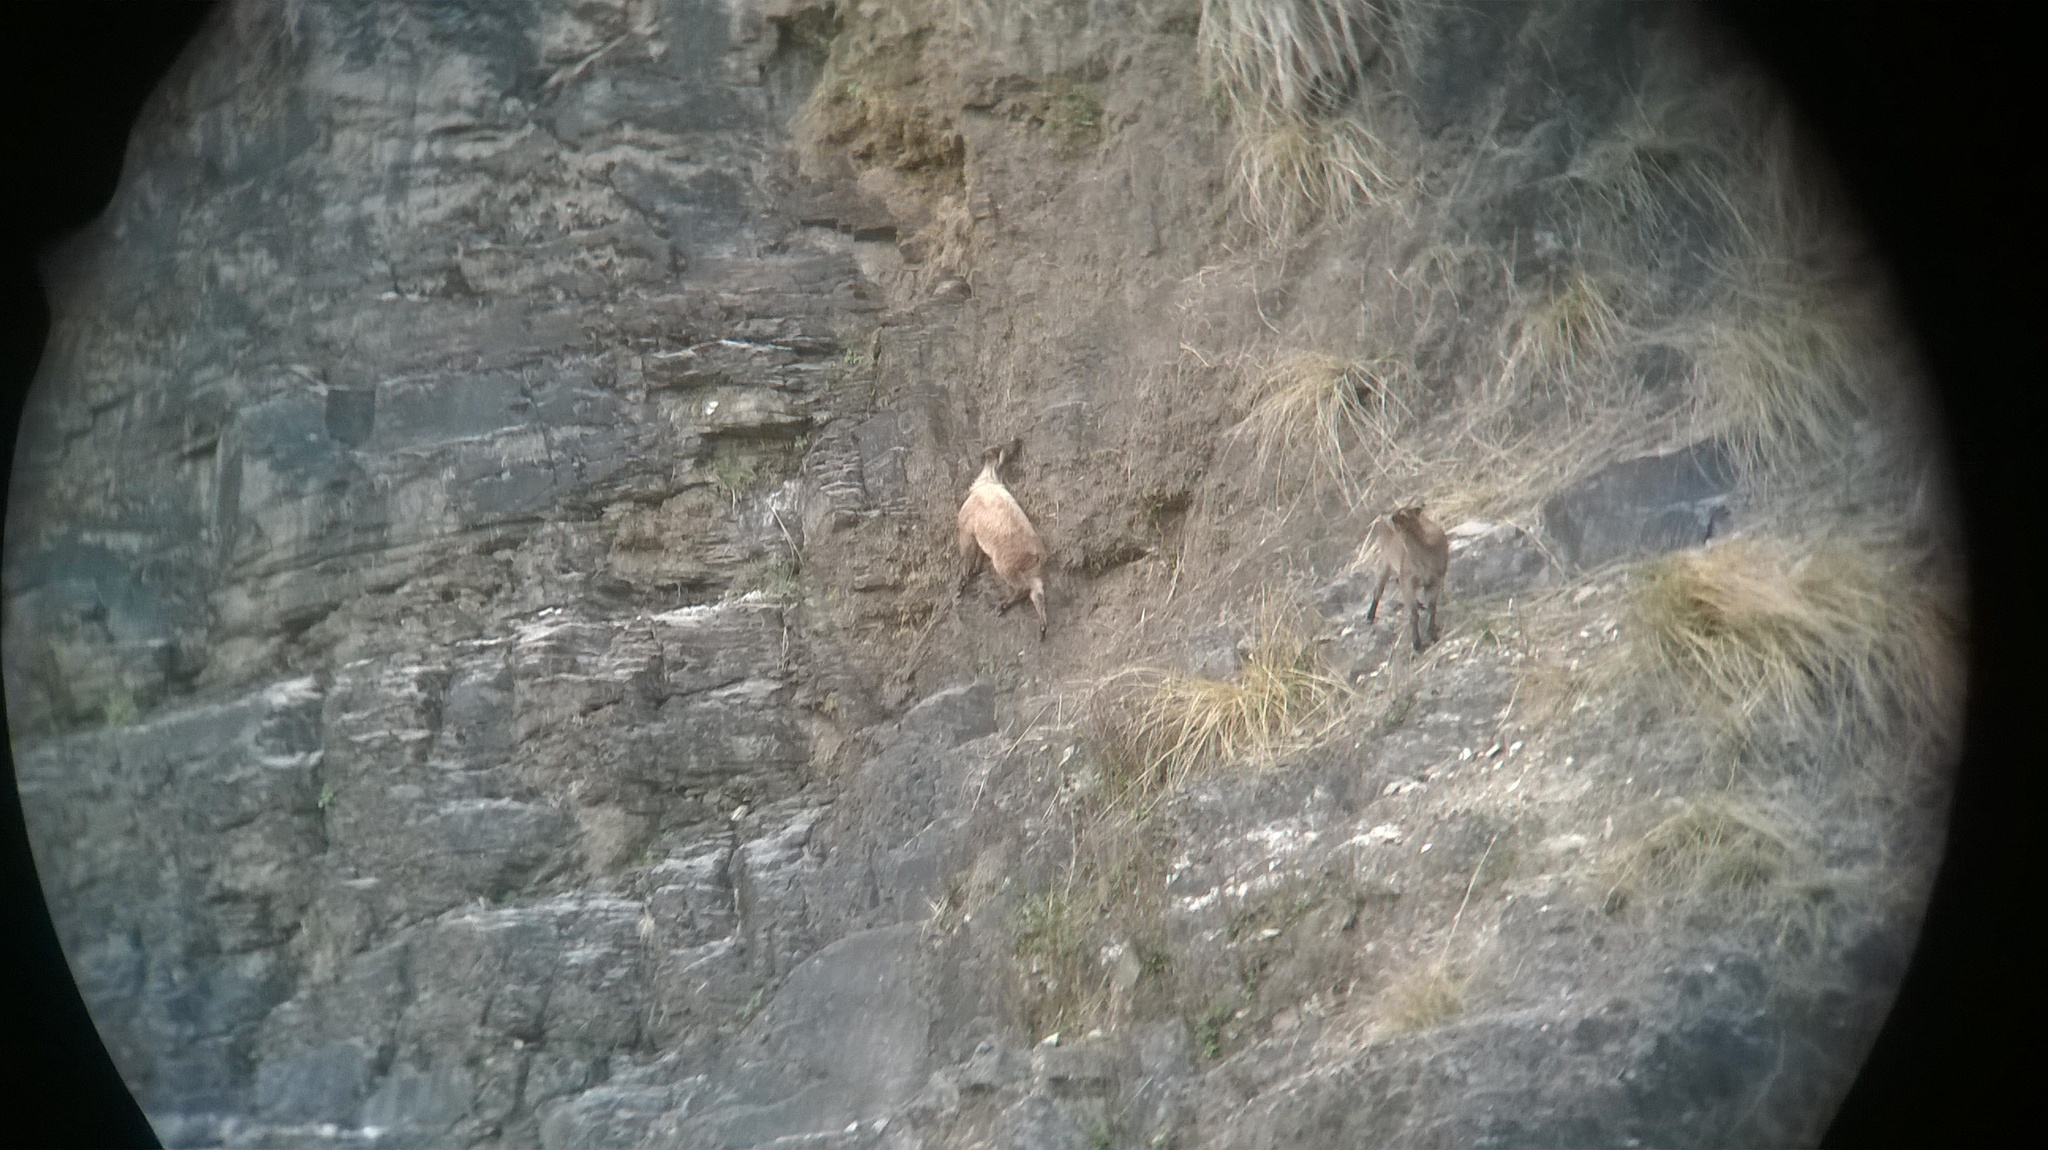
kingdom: Animalia
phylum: Chordata
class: Mammalia
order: Artiodactyla
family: Bovidae
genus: Hemitragus
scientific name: Hemitragus jemlahicus
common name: Himalayan tahr
